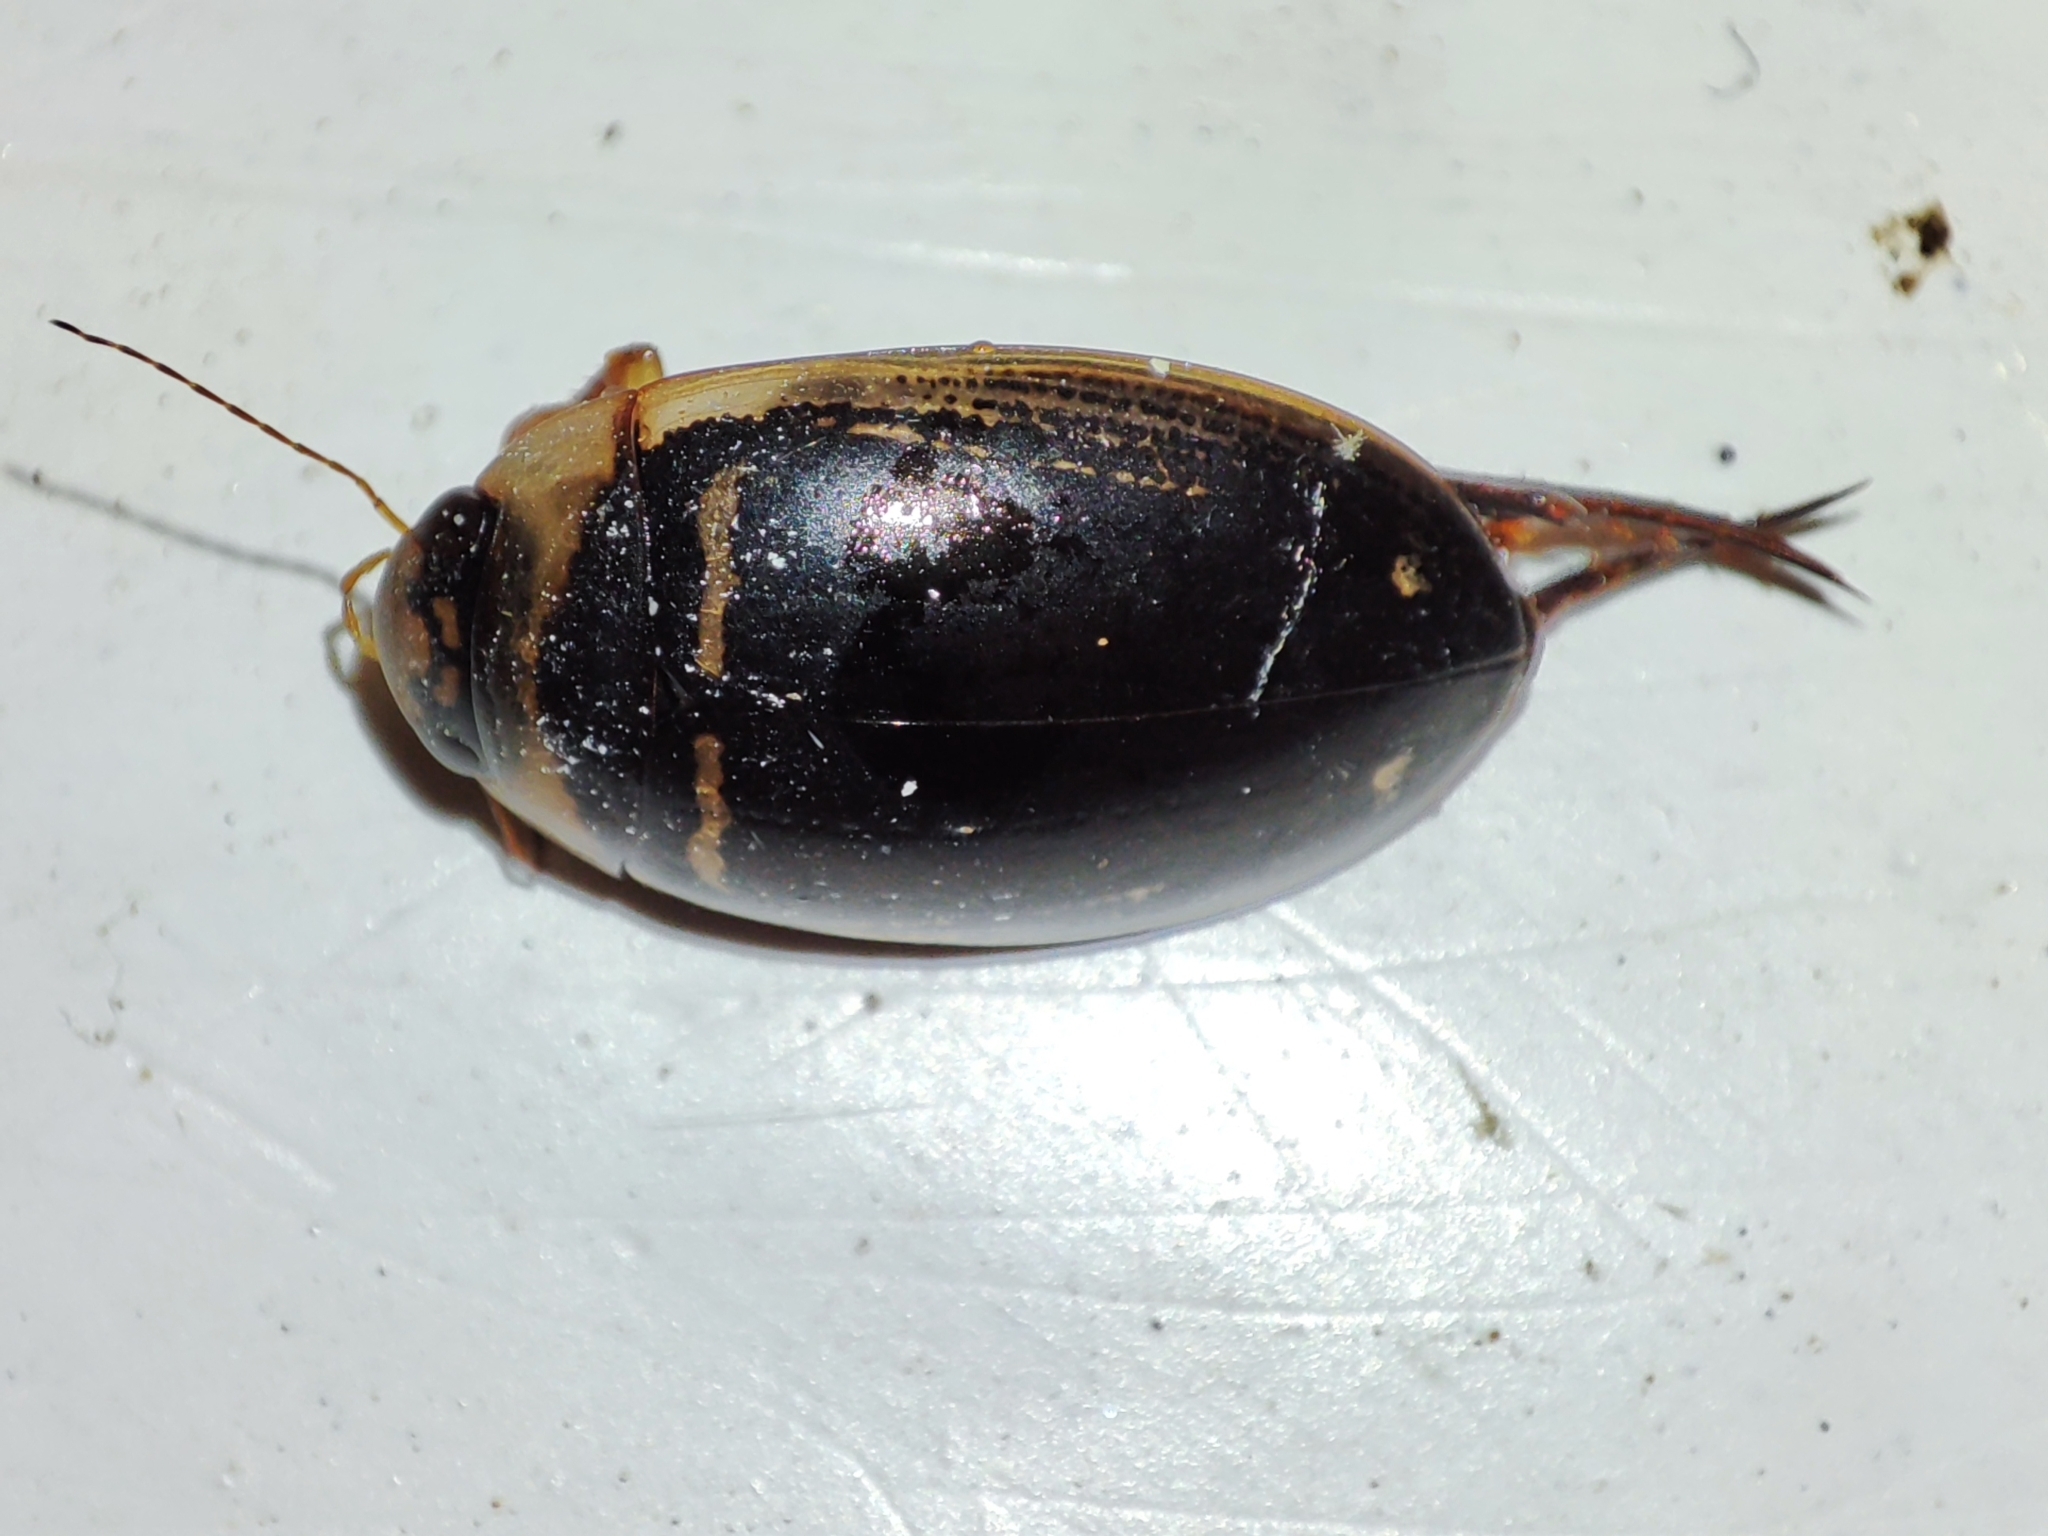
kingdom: Animalia
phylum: Arthropoda
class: Insecta
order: Coleoptera
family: Dytiscidae
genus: Hydaticus
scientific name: Hydaticus transversalis
